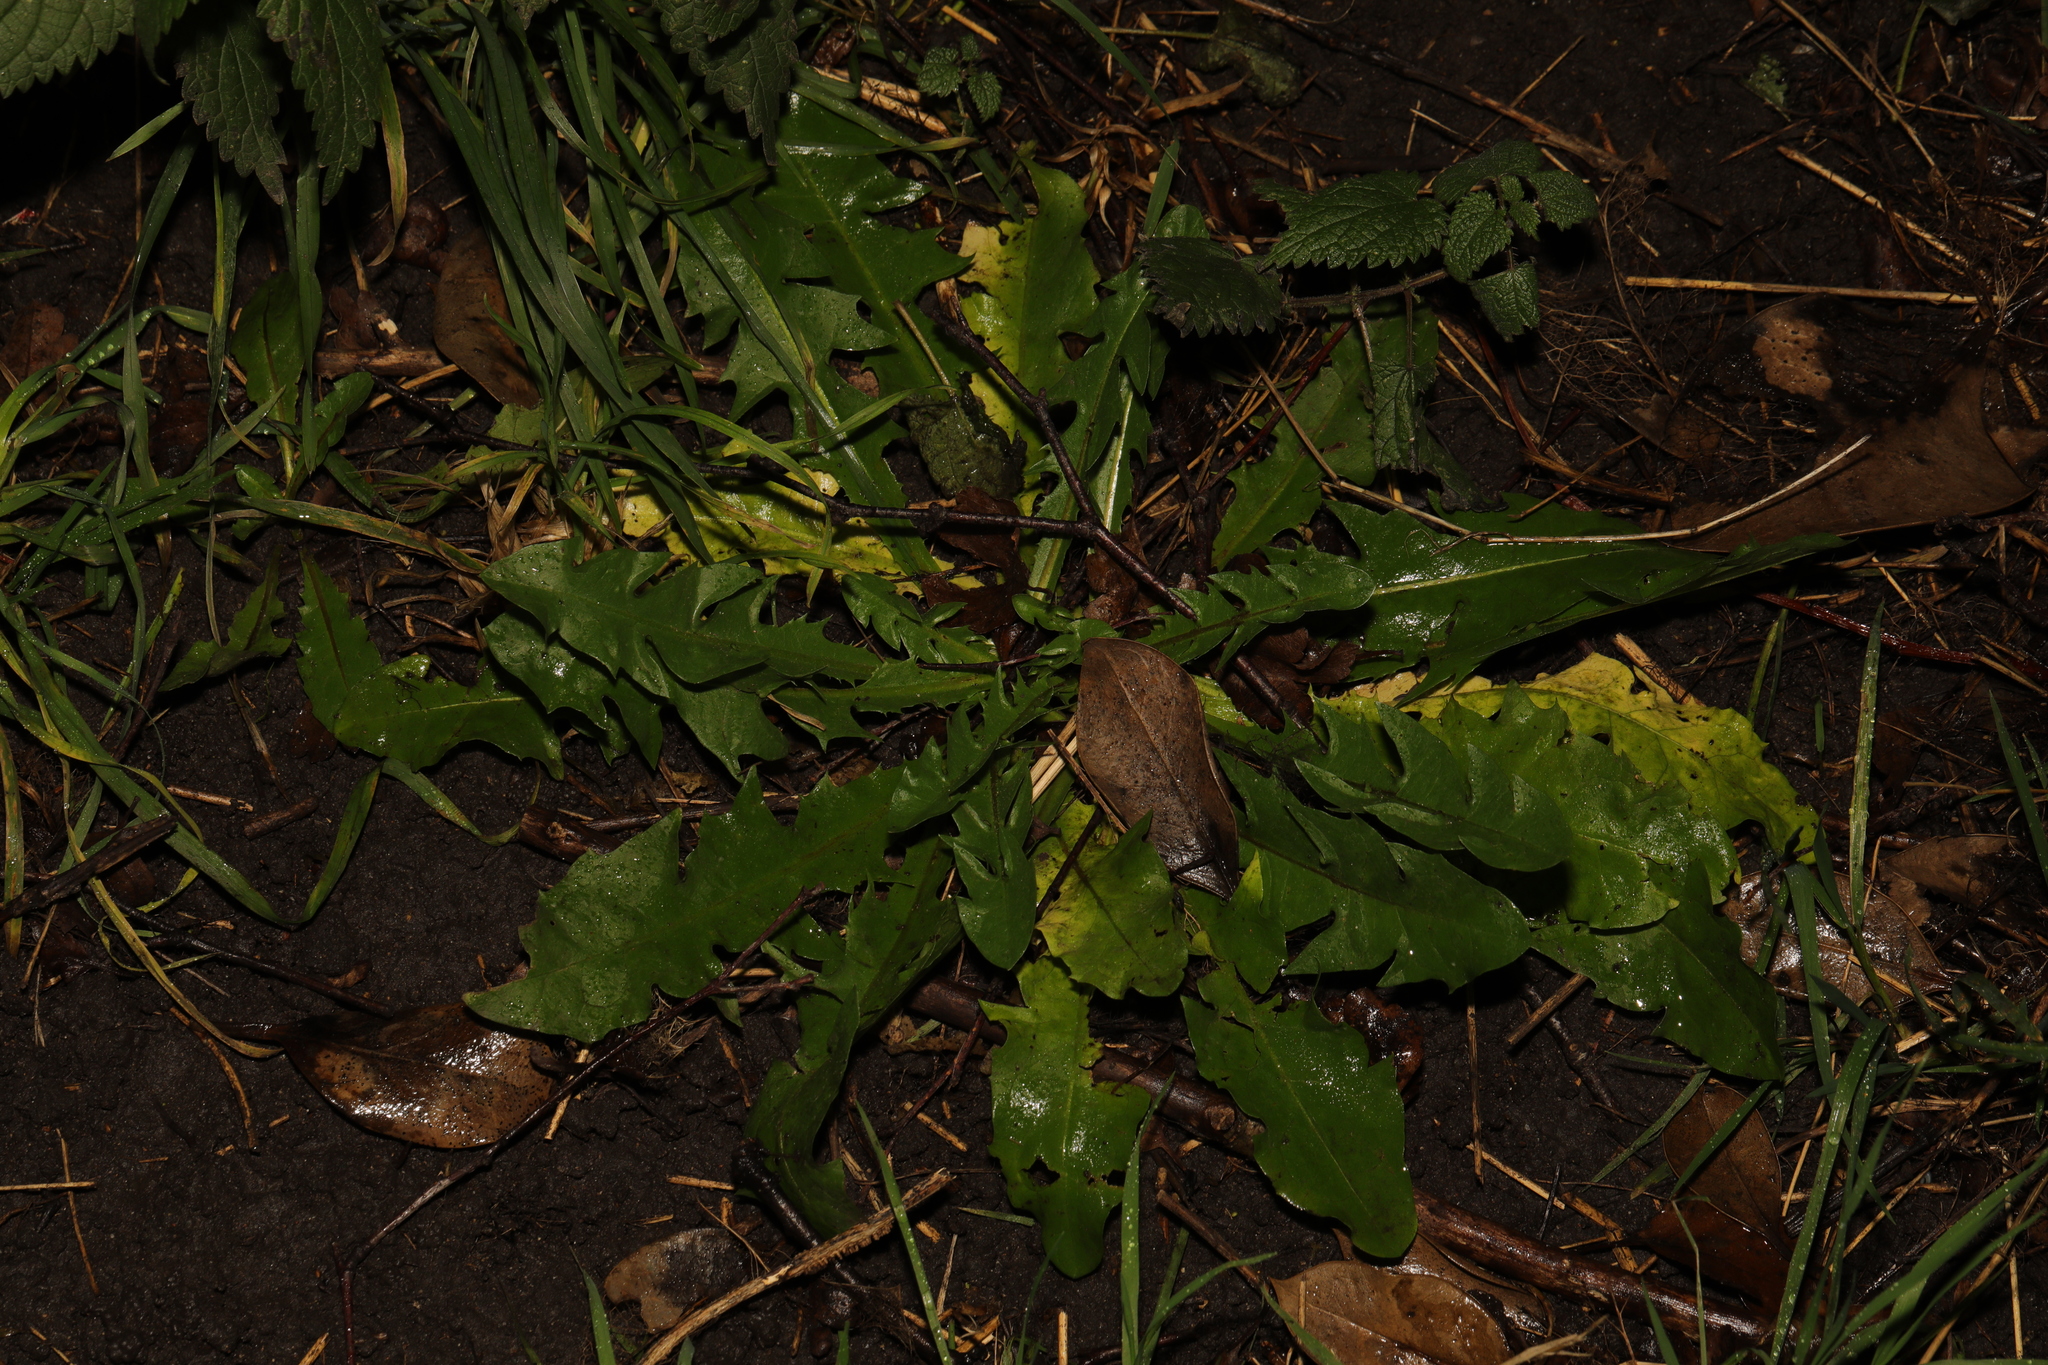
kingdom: Plantae
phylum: Tracheophyta
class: Magnoliopsida
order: Asterales
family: Asteraceae
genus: Taraxacum
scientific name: Taraxacum officinale
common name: Common dandelion
